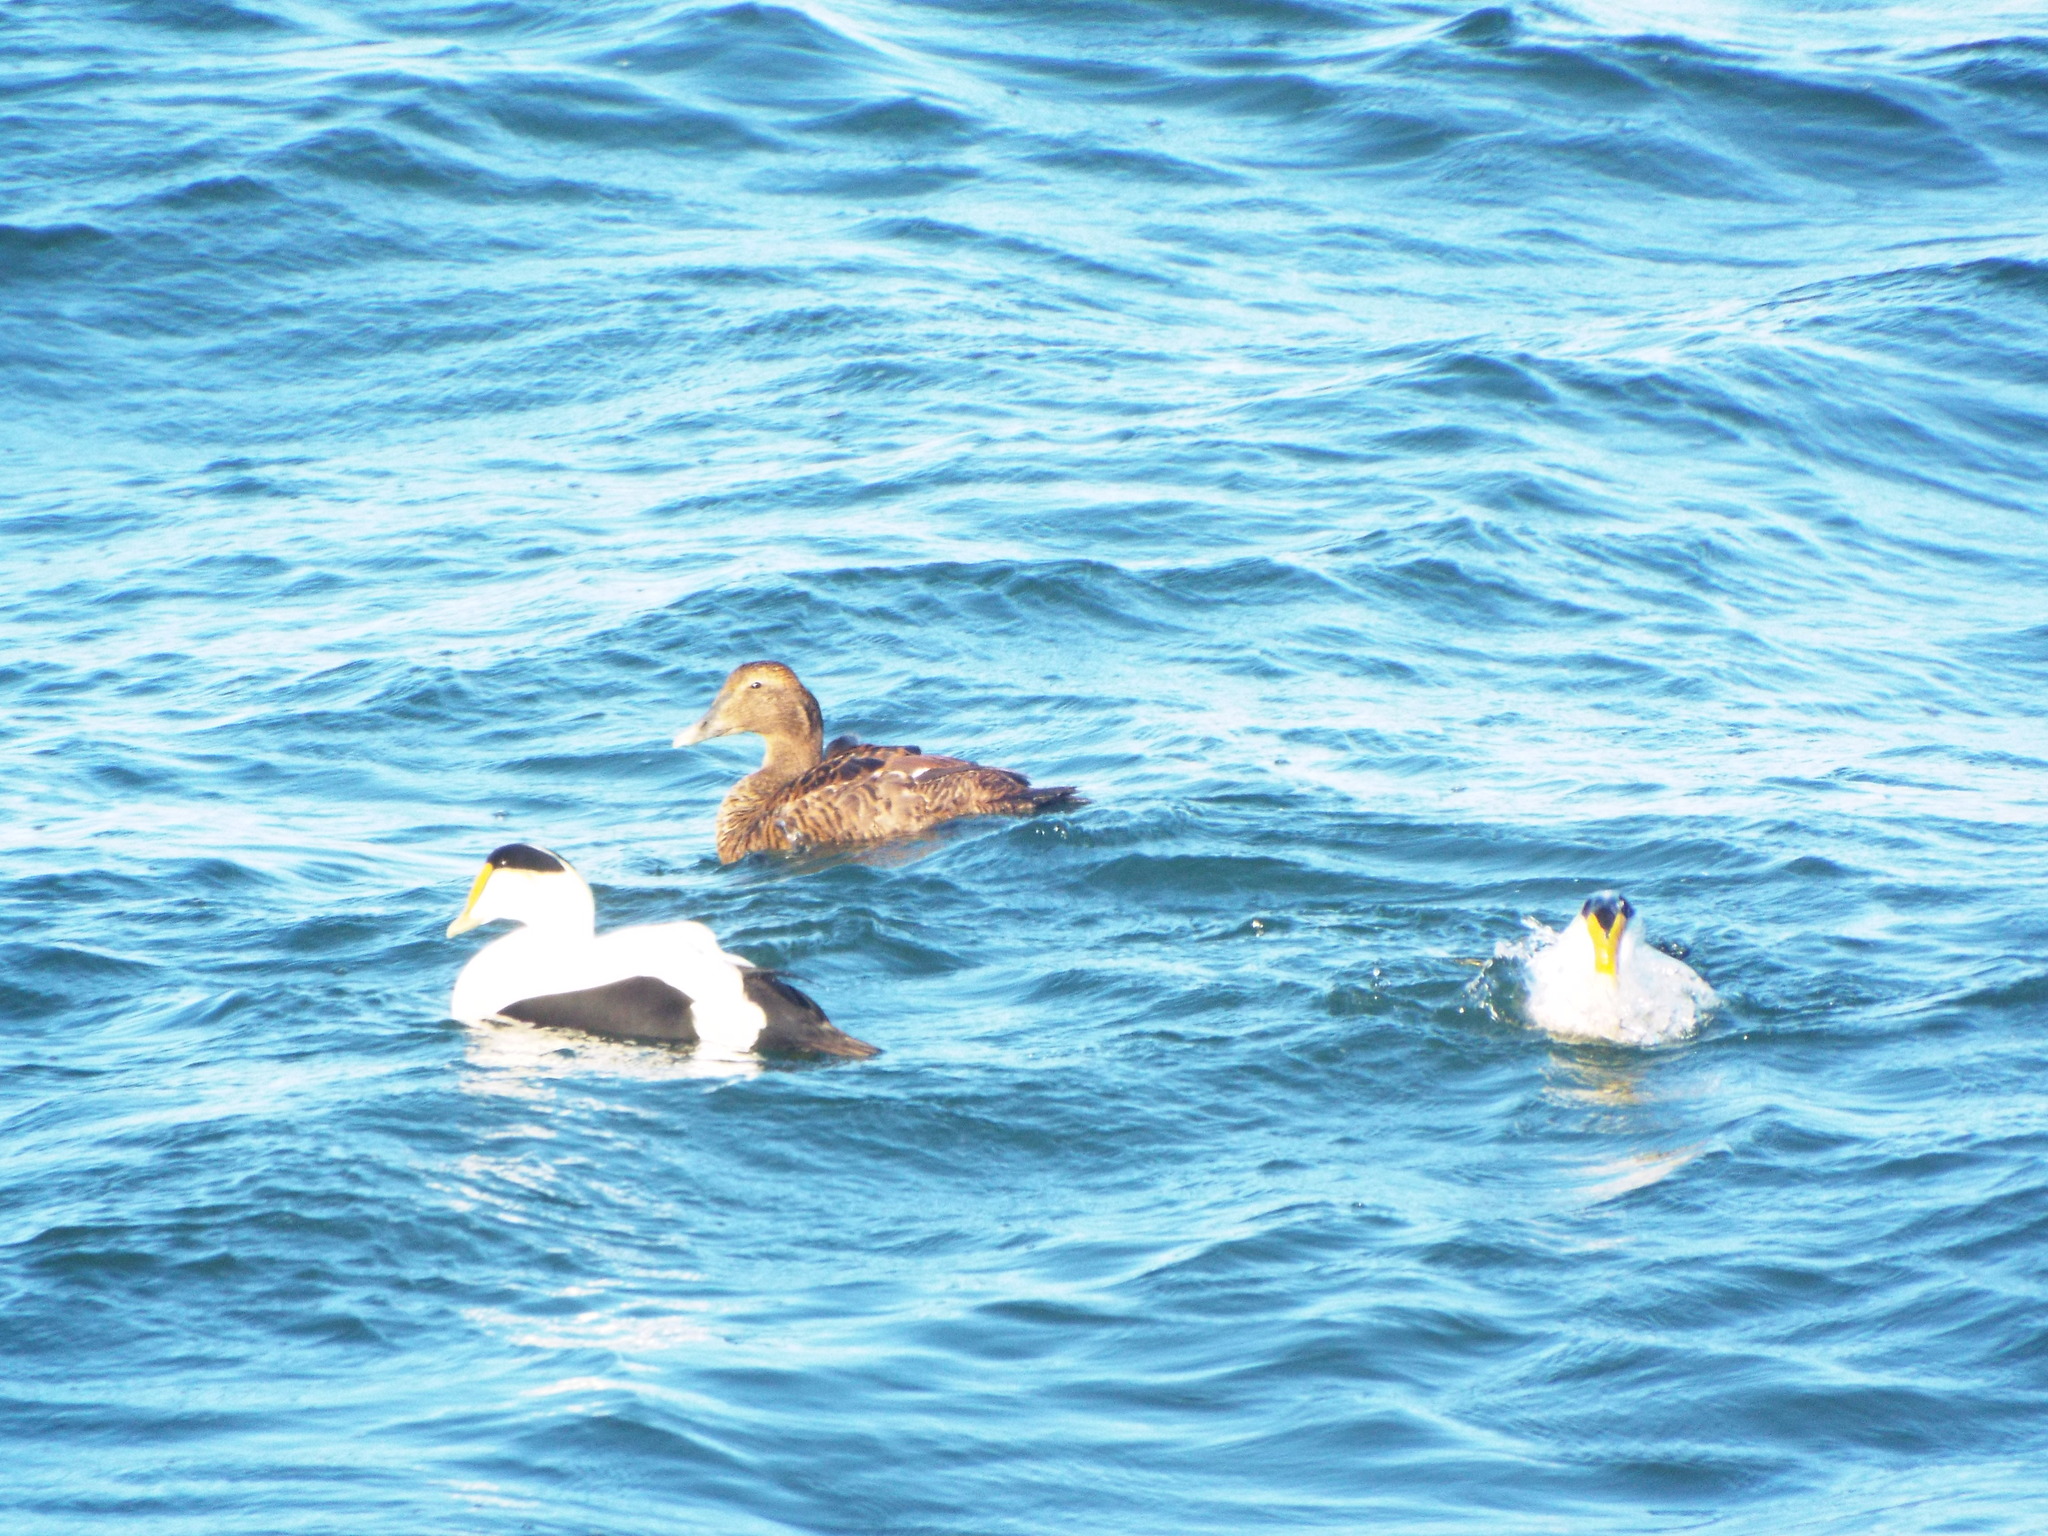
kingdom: Animalia
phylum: Chordata
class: Aves
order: Anseriformes
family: Anatidae
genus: Somateria
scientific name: Somateria mollissima
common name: Common eider
